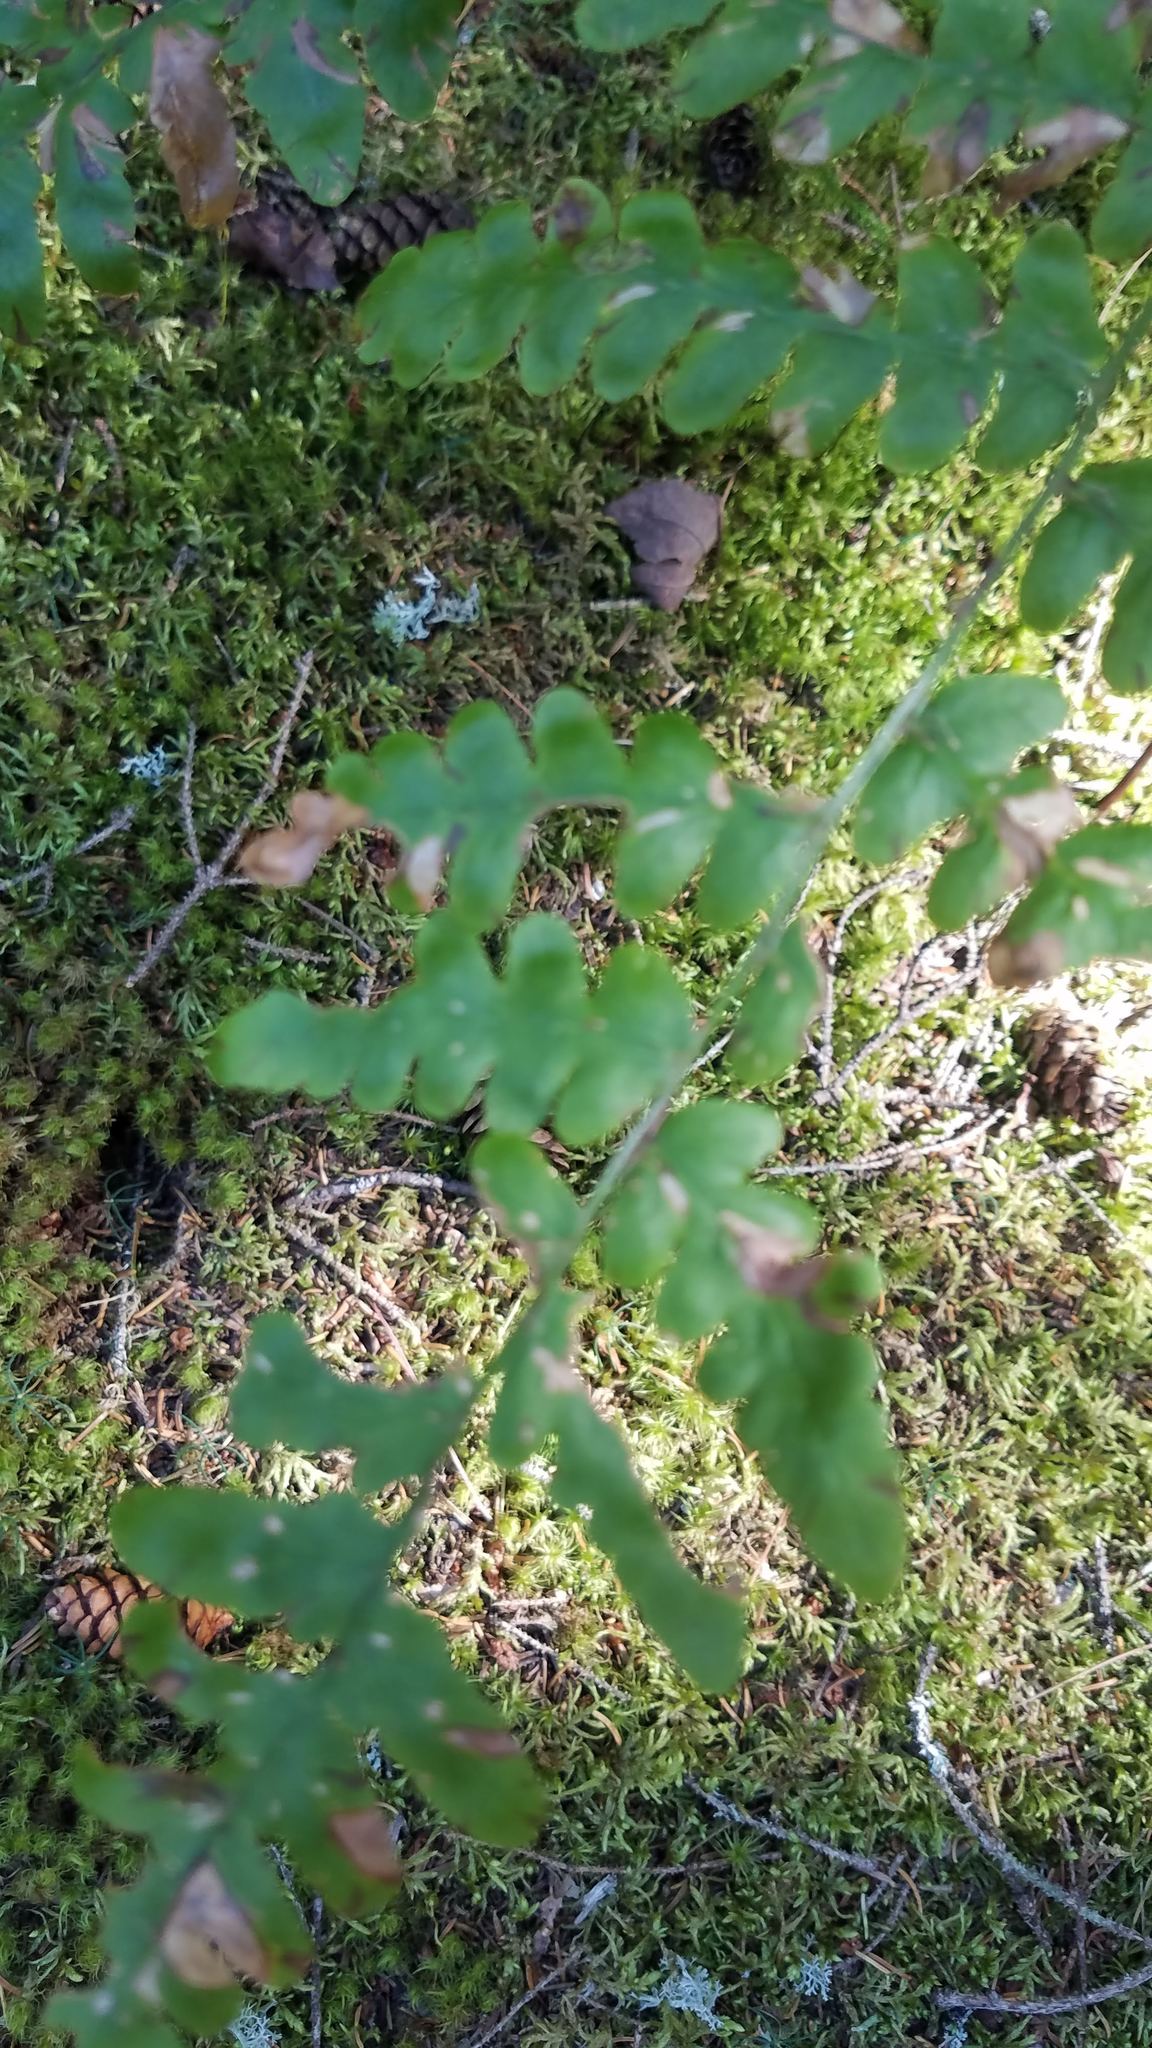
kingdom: Plantae
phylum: Tracheophyta
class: Polypodiopsida
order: Polypodiales
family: Dennstaedtiaceae
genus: Pteridium
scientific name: Pteridium aquilinum
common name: Bracken
